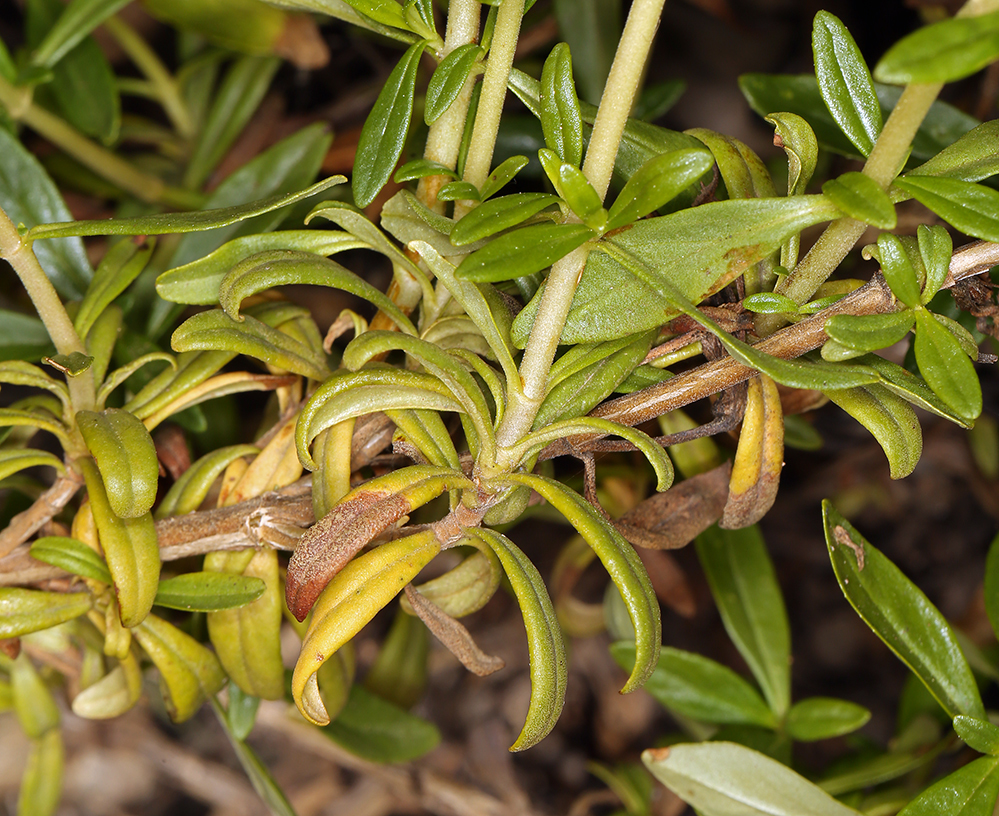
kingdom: Plantae
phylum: Tracheophyta
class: Magnoliopsida
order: Lamiales
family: Phrymaceae
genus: Diplacus
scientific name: Diplacus grandiflorus
